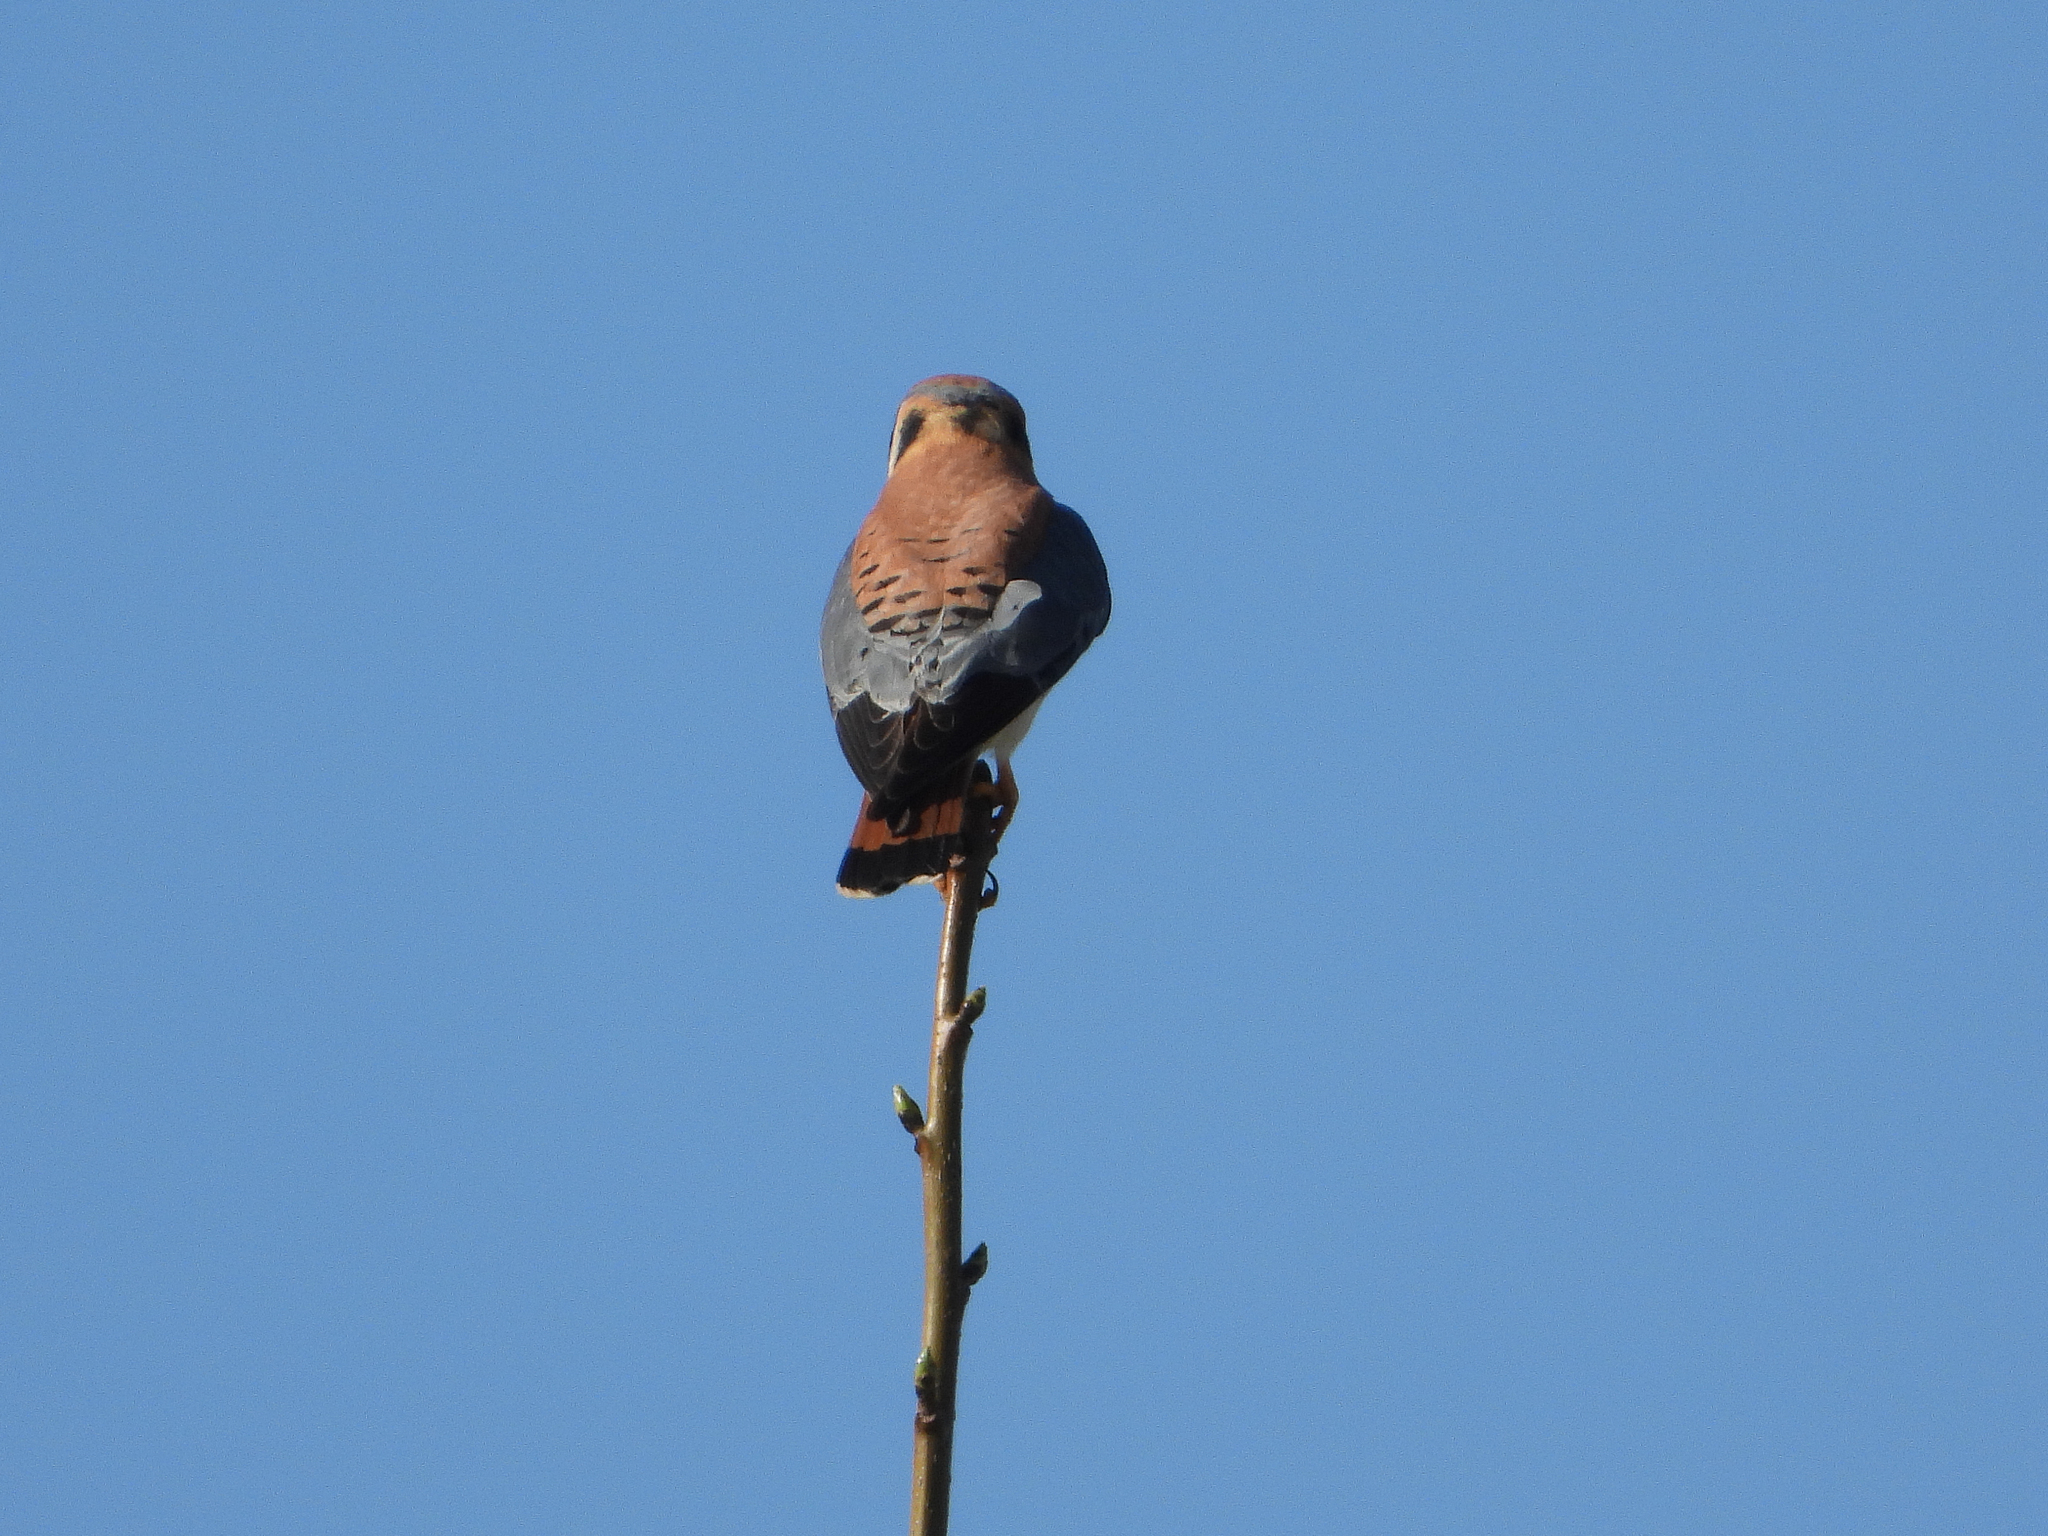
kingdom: Animalia
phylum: Chordata
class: Aves
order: Falconiformes
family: Falconidae
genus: Falco
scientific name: Falco sparverius
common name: American kestrel
